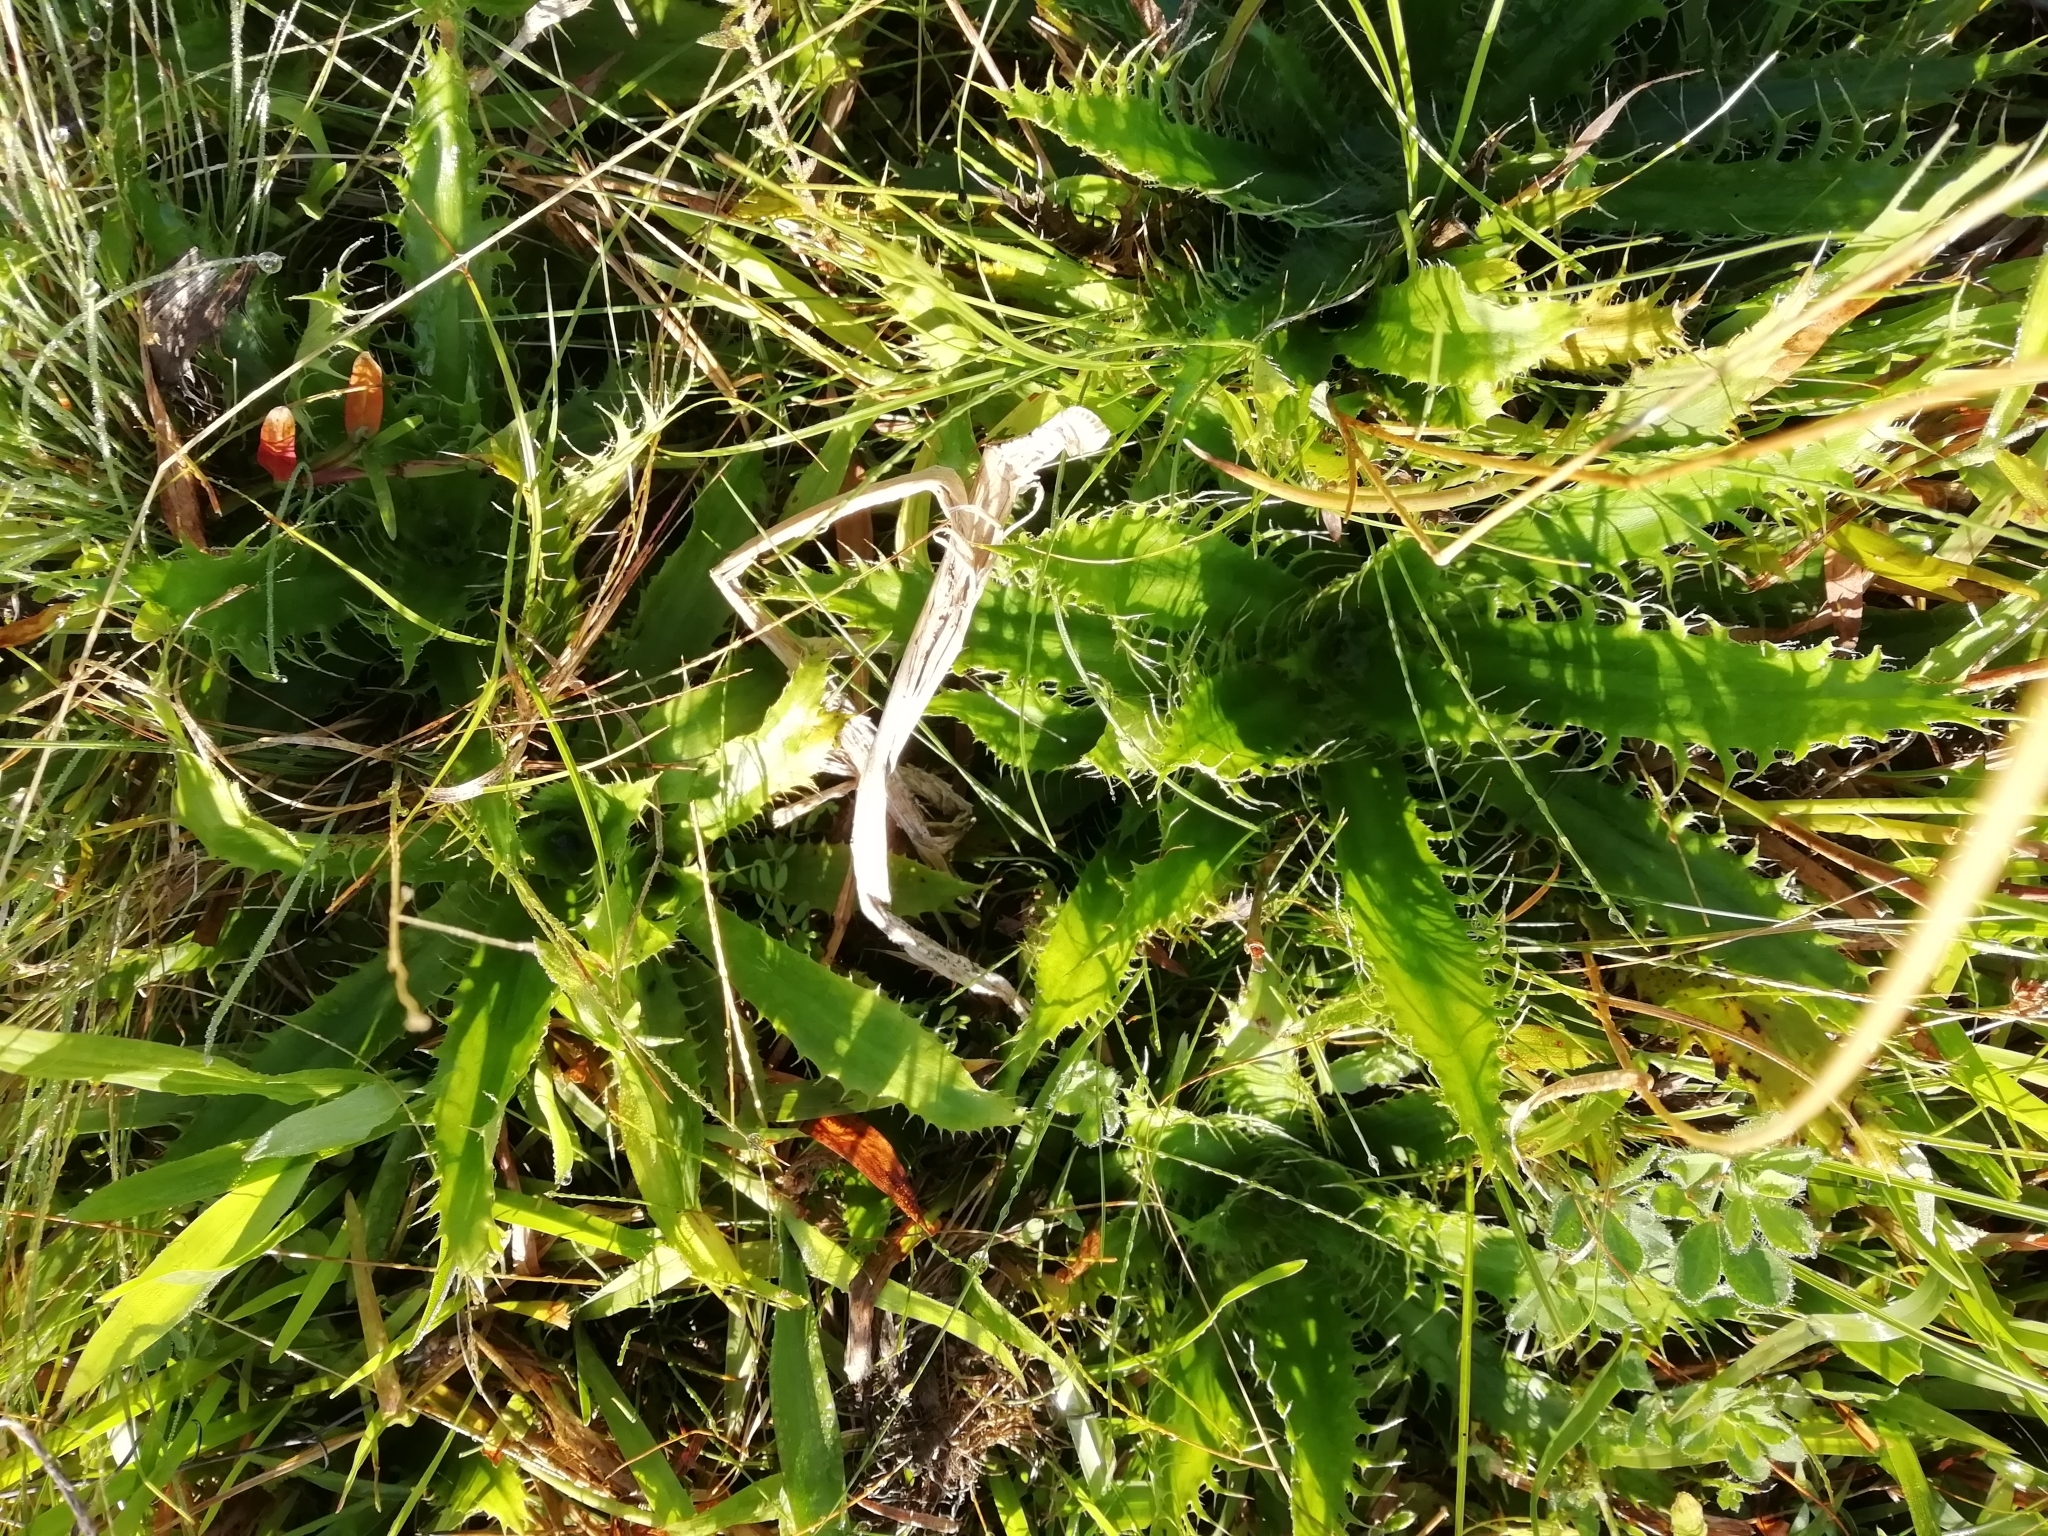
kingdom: Plantae
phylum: Tracheophyta
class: Magnoliopsida
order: Apiales
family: Apiaceae
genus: Eryngium
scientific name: Eryngium serra
